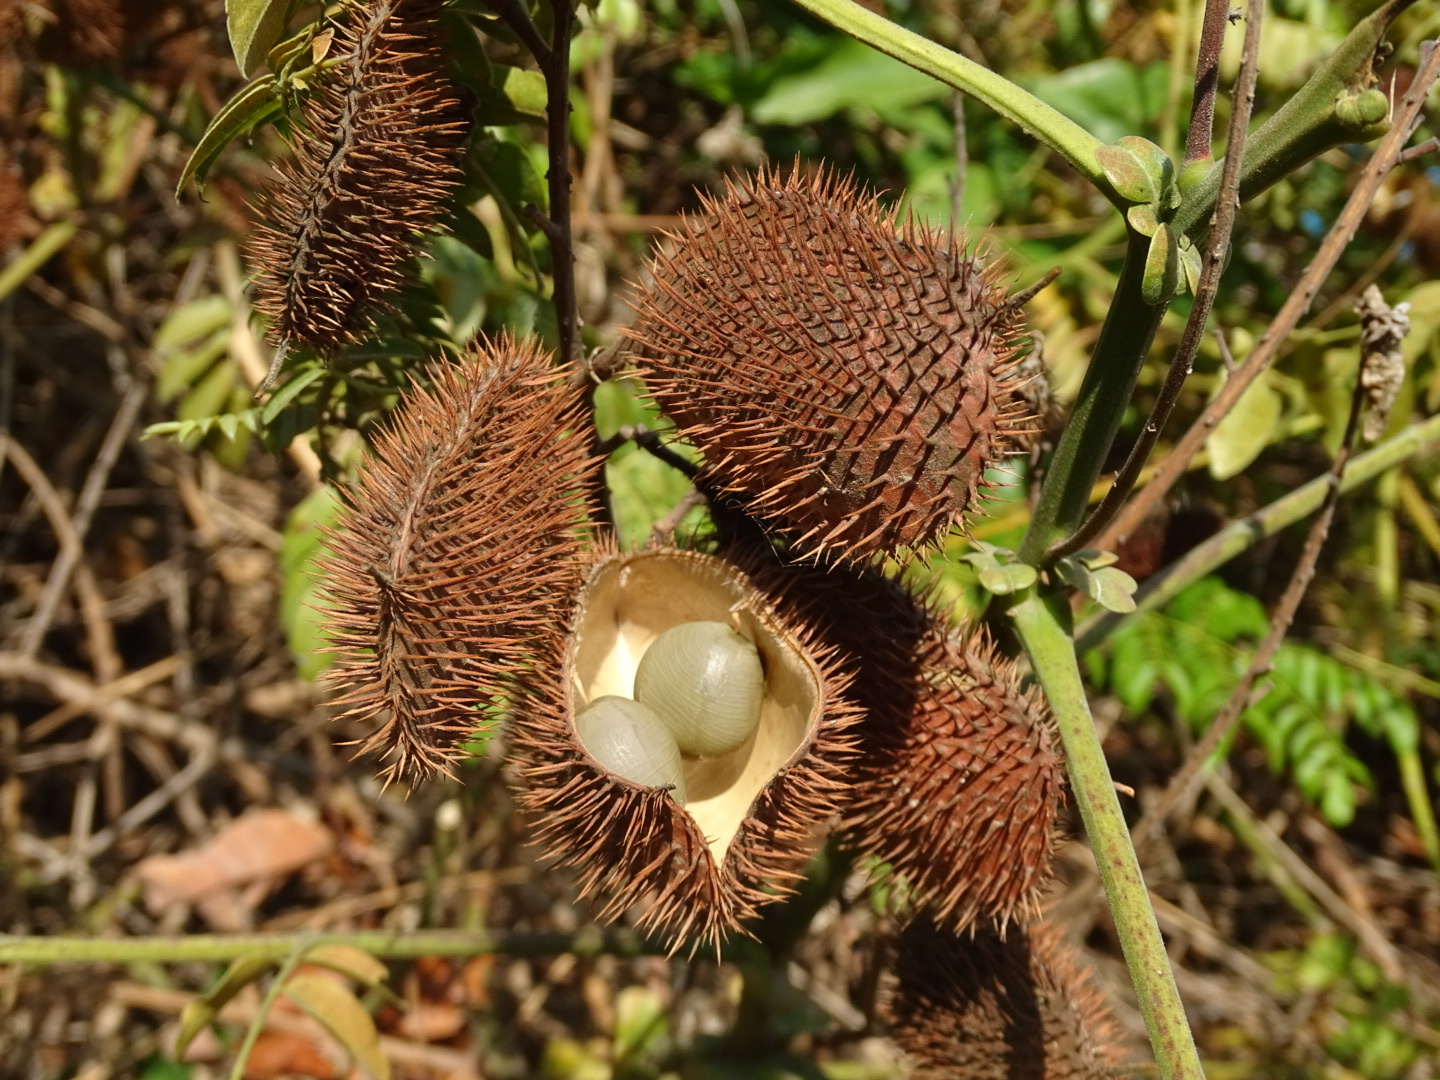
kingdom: Plantae
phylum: Tracheophyta
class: Magnoliopsida
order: Fabales
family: Fabaceae
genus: Guilandina
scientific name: Guilandina bonduc
